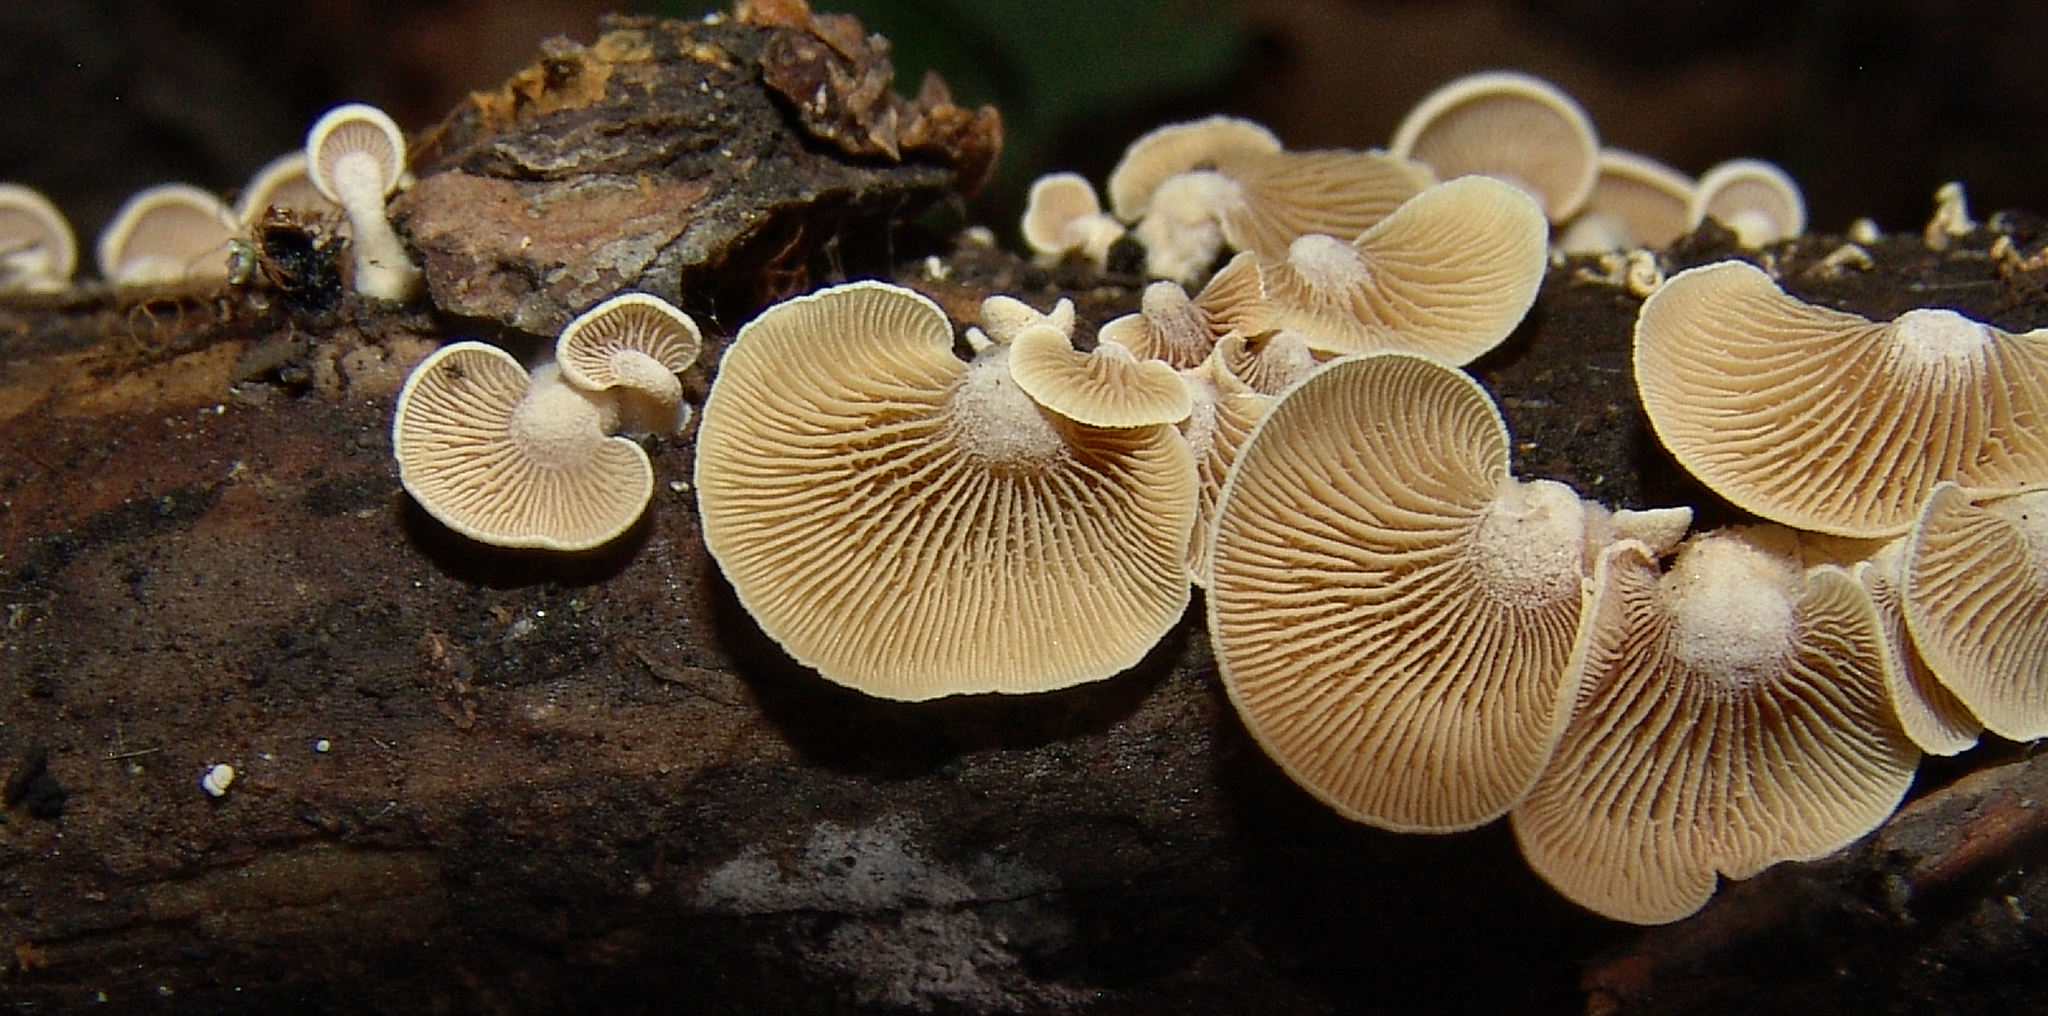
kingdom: Fungi
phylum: Basidiomycota
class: Agaricomycetes
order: Agaricales
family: Mycenaceae
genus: Panellus
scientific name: Panellus stipticus
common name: Bitter oysterling
